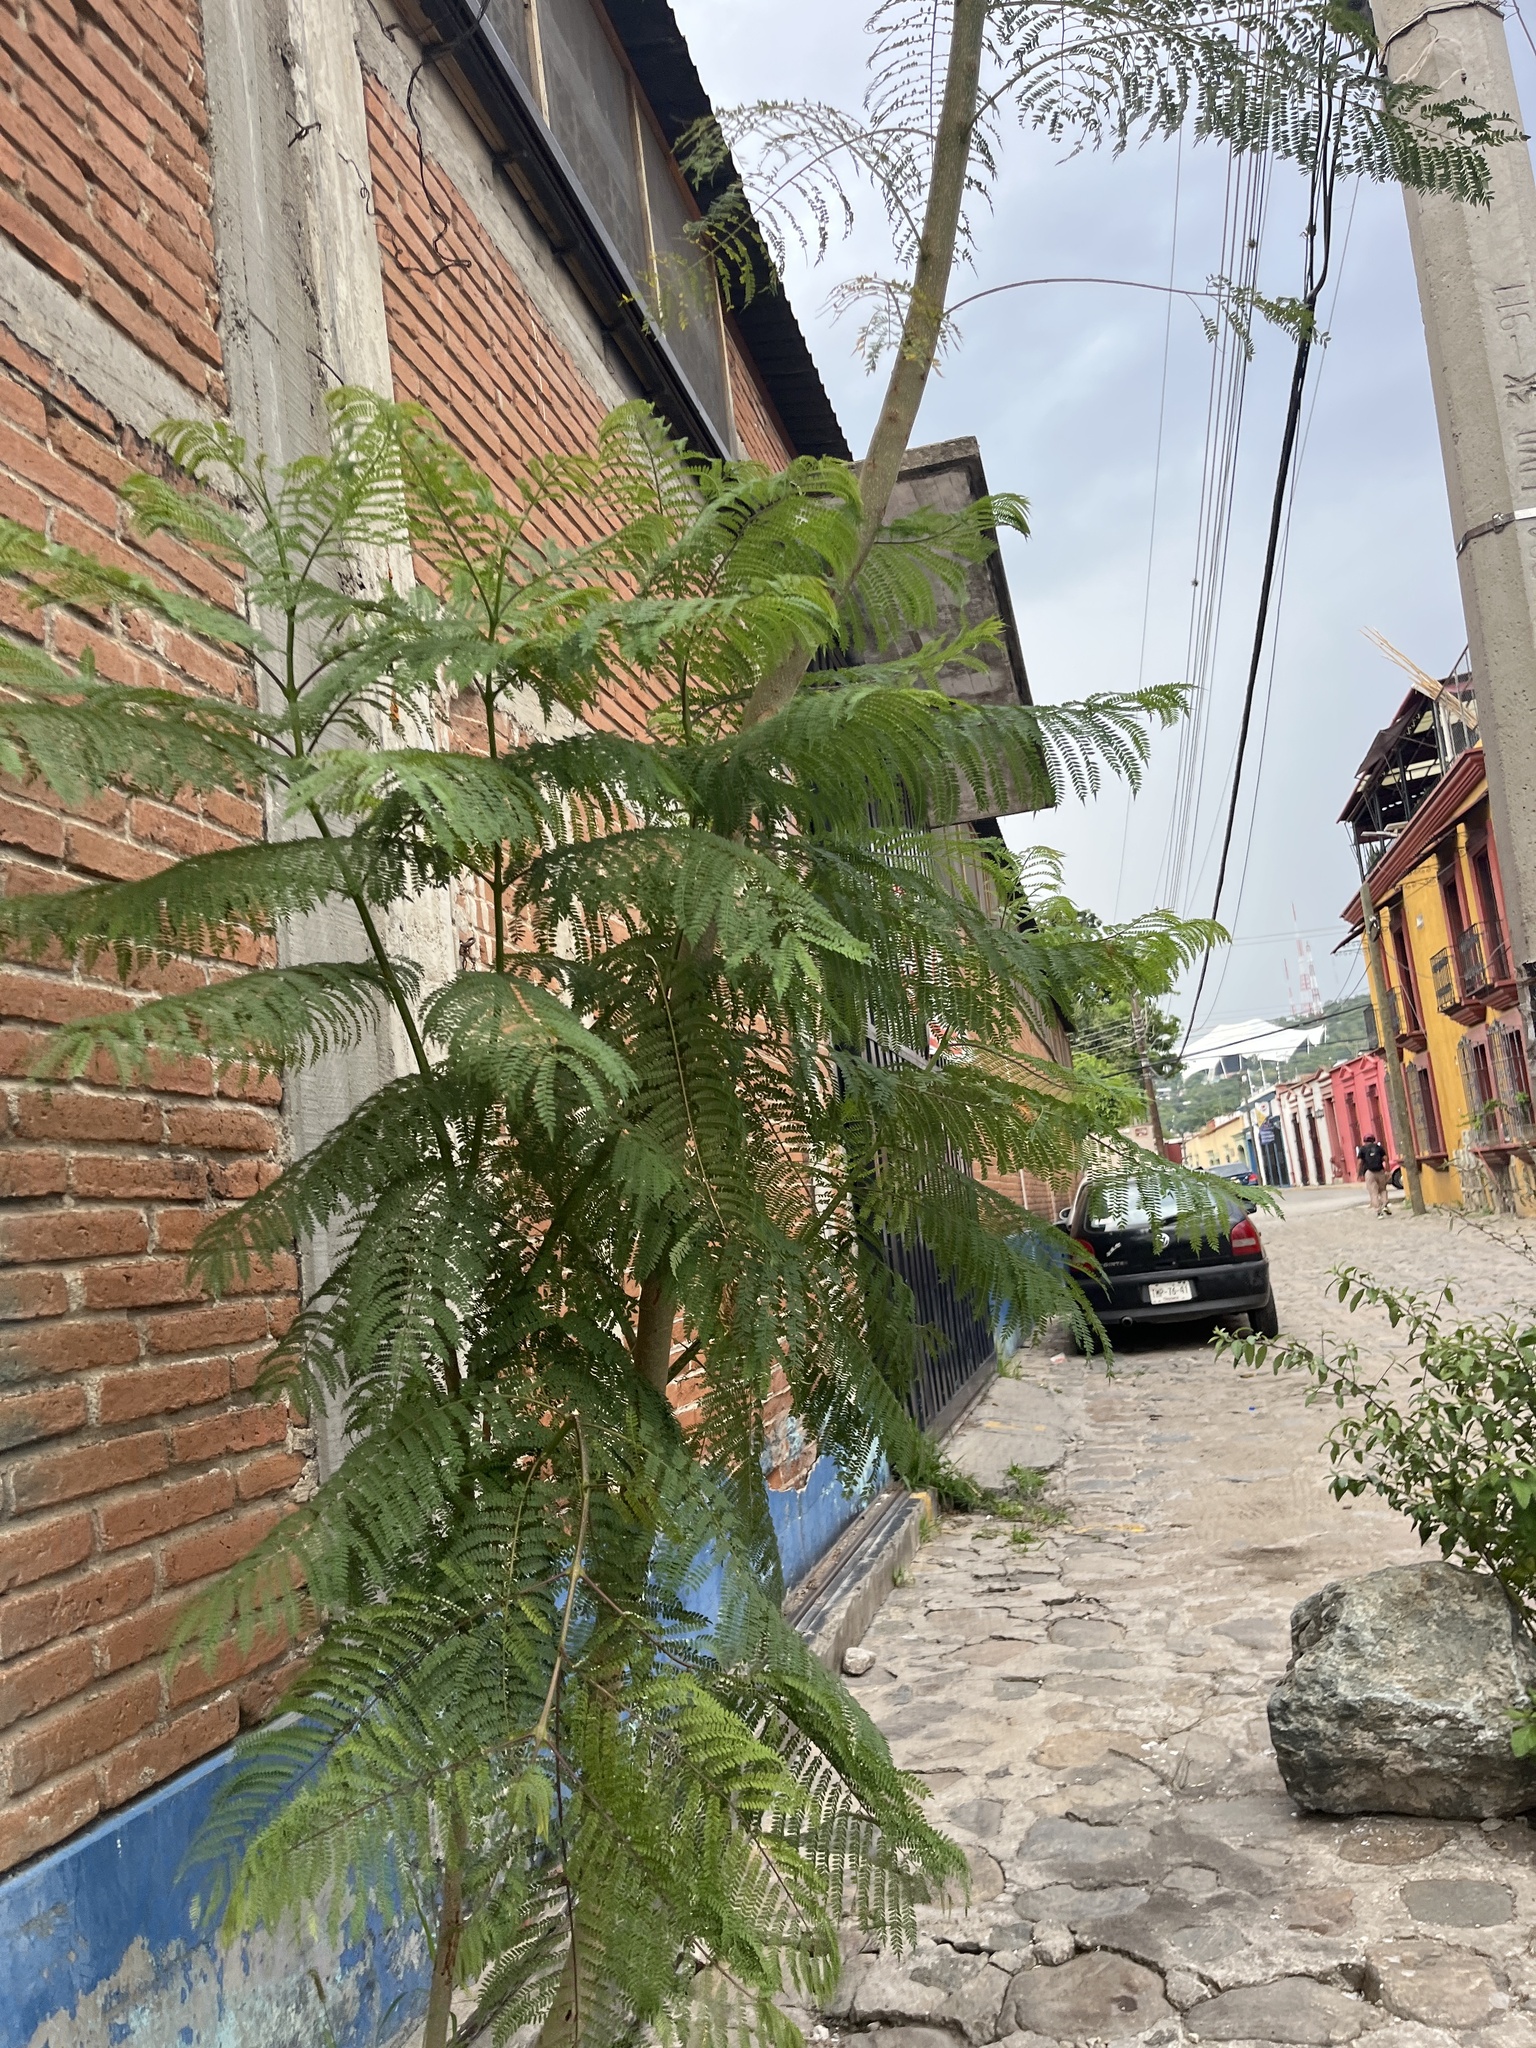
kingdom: Plantae
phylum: Tracheophyta
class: Magnoliopsida
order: Lamiales
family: Bignoniaceae
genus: Jacaranda
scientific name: Jacaranda mimosifolia
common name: Black poui
